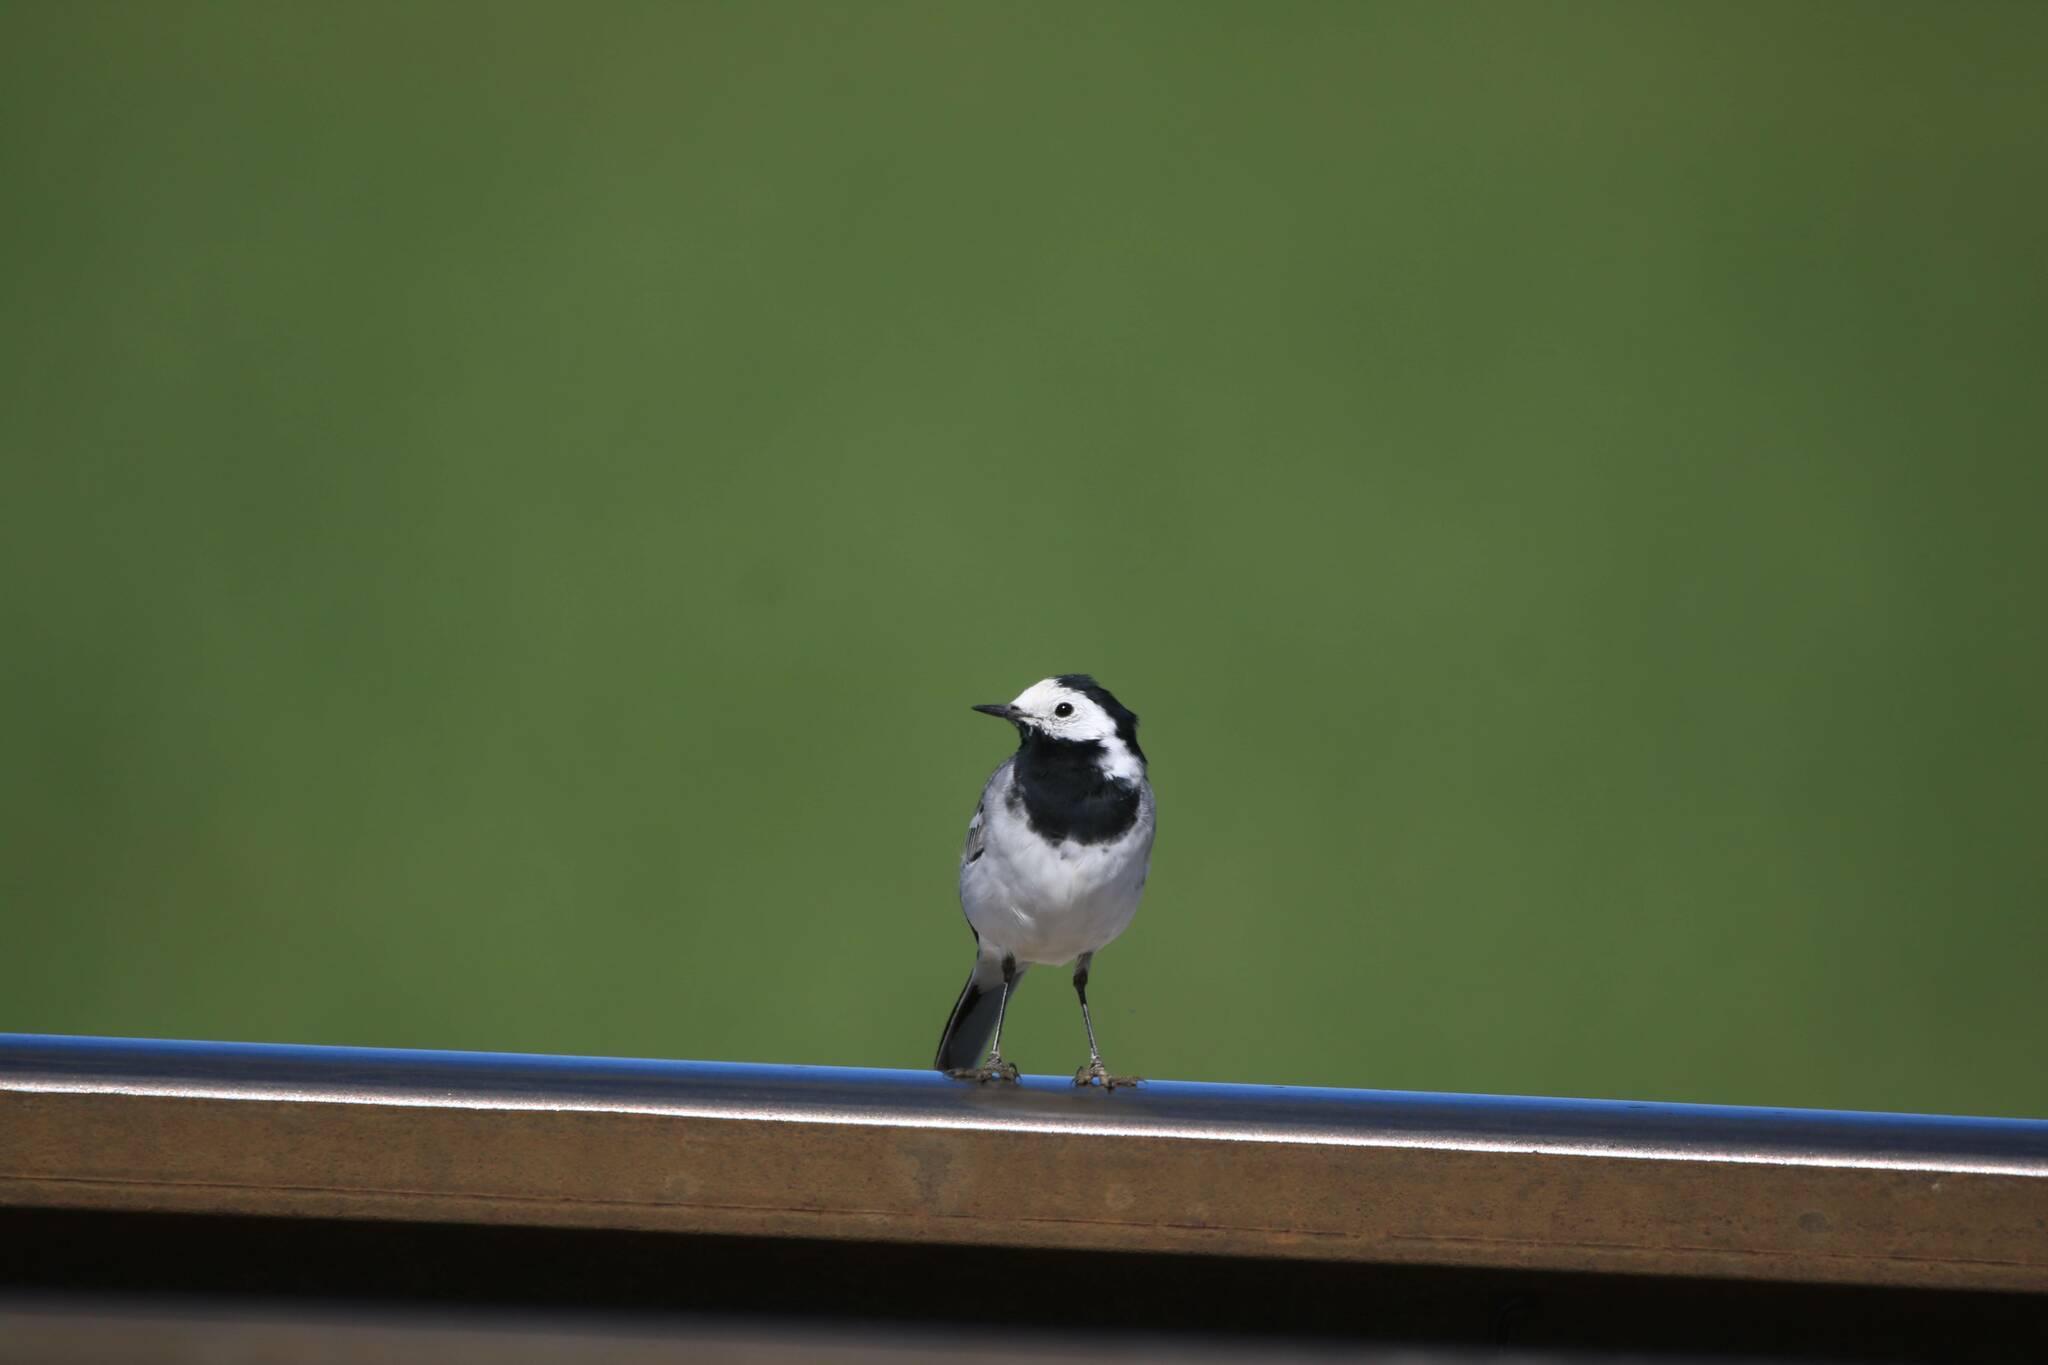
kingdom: Animalia
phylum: Chordata
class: Aves
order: Passeriformes
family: Motacillidae
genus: Motacilla
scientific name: Motacilla alba
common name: White wagtail
